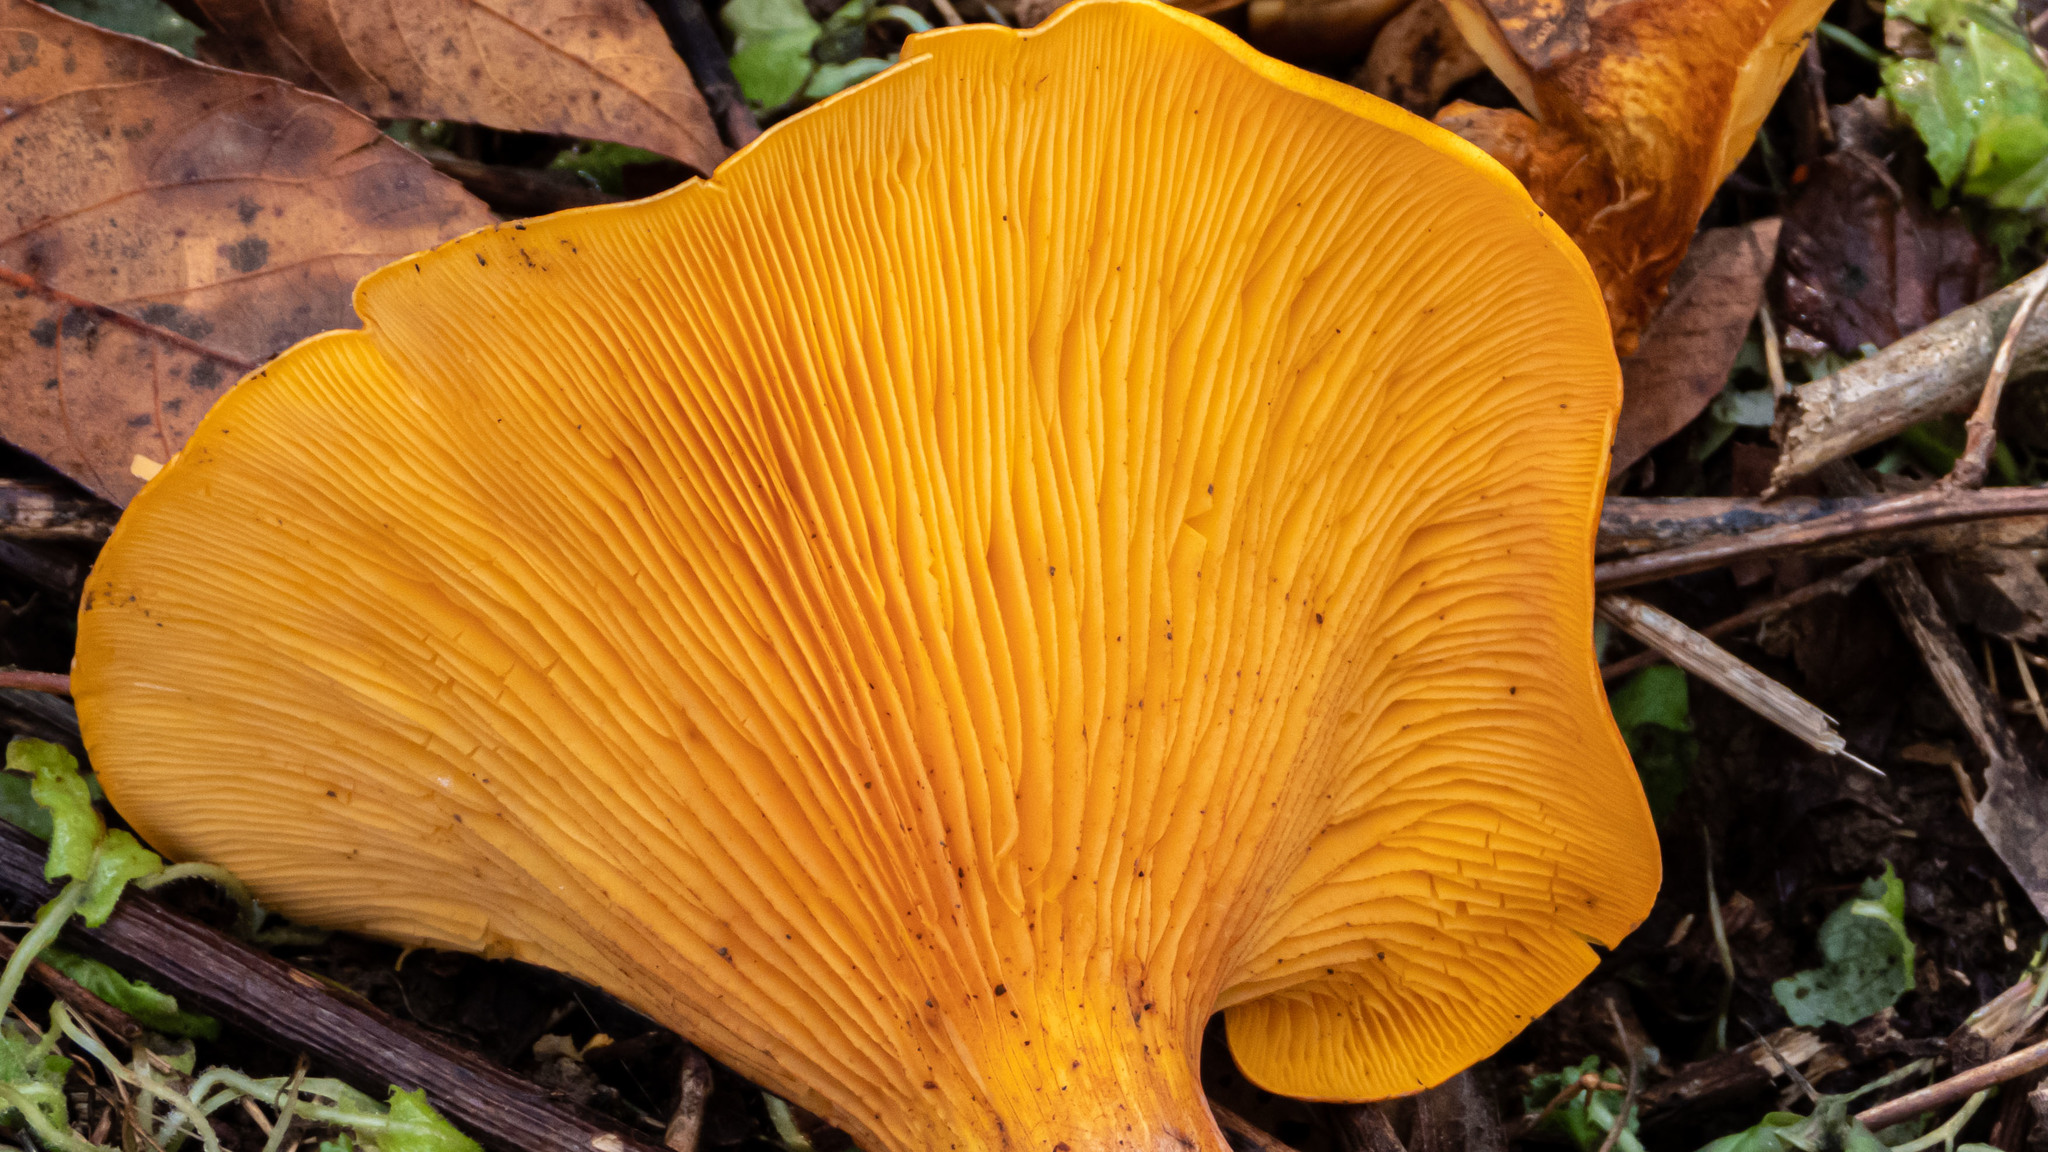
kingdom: Fungi
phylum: Basidiomycota
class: Agaricomycetes
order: Agaricales
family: Omphalotaceae
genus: Omphalotus
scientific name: Omphalotus illudens
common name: Jack o lantern
